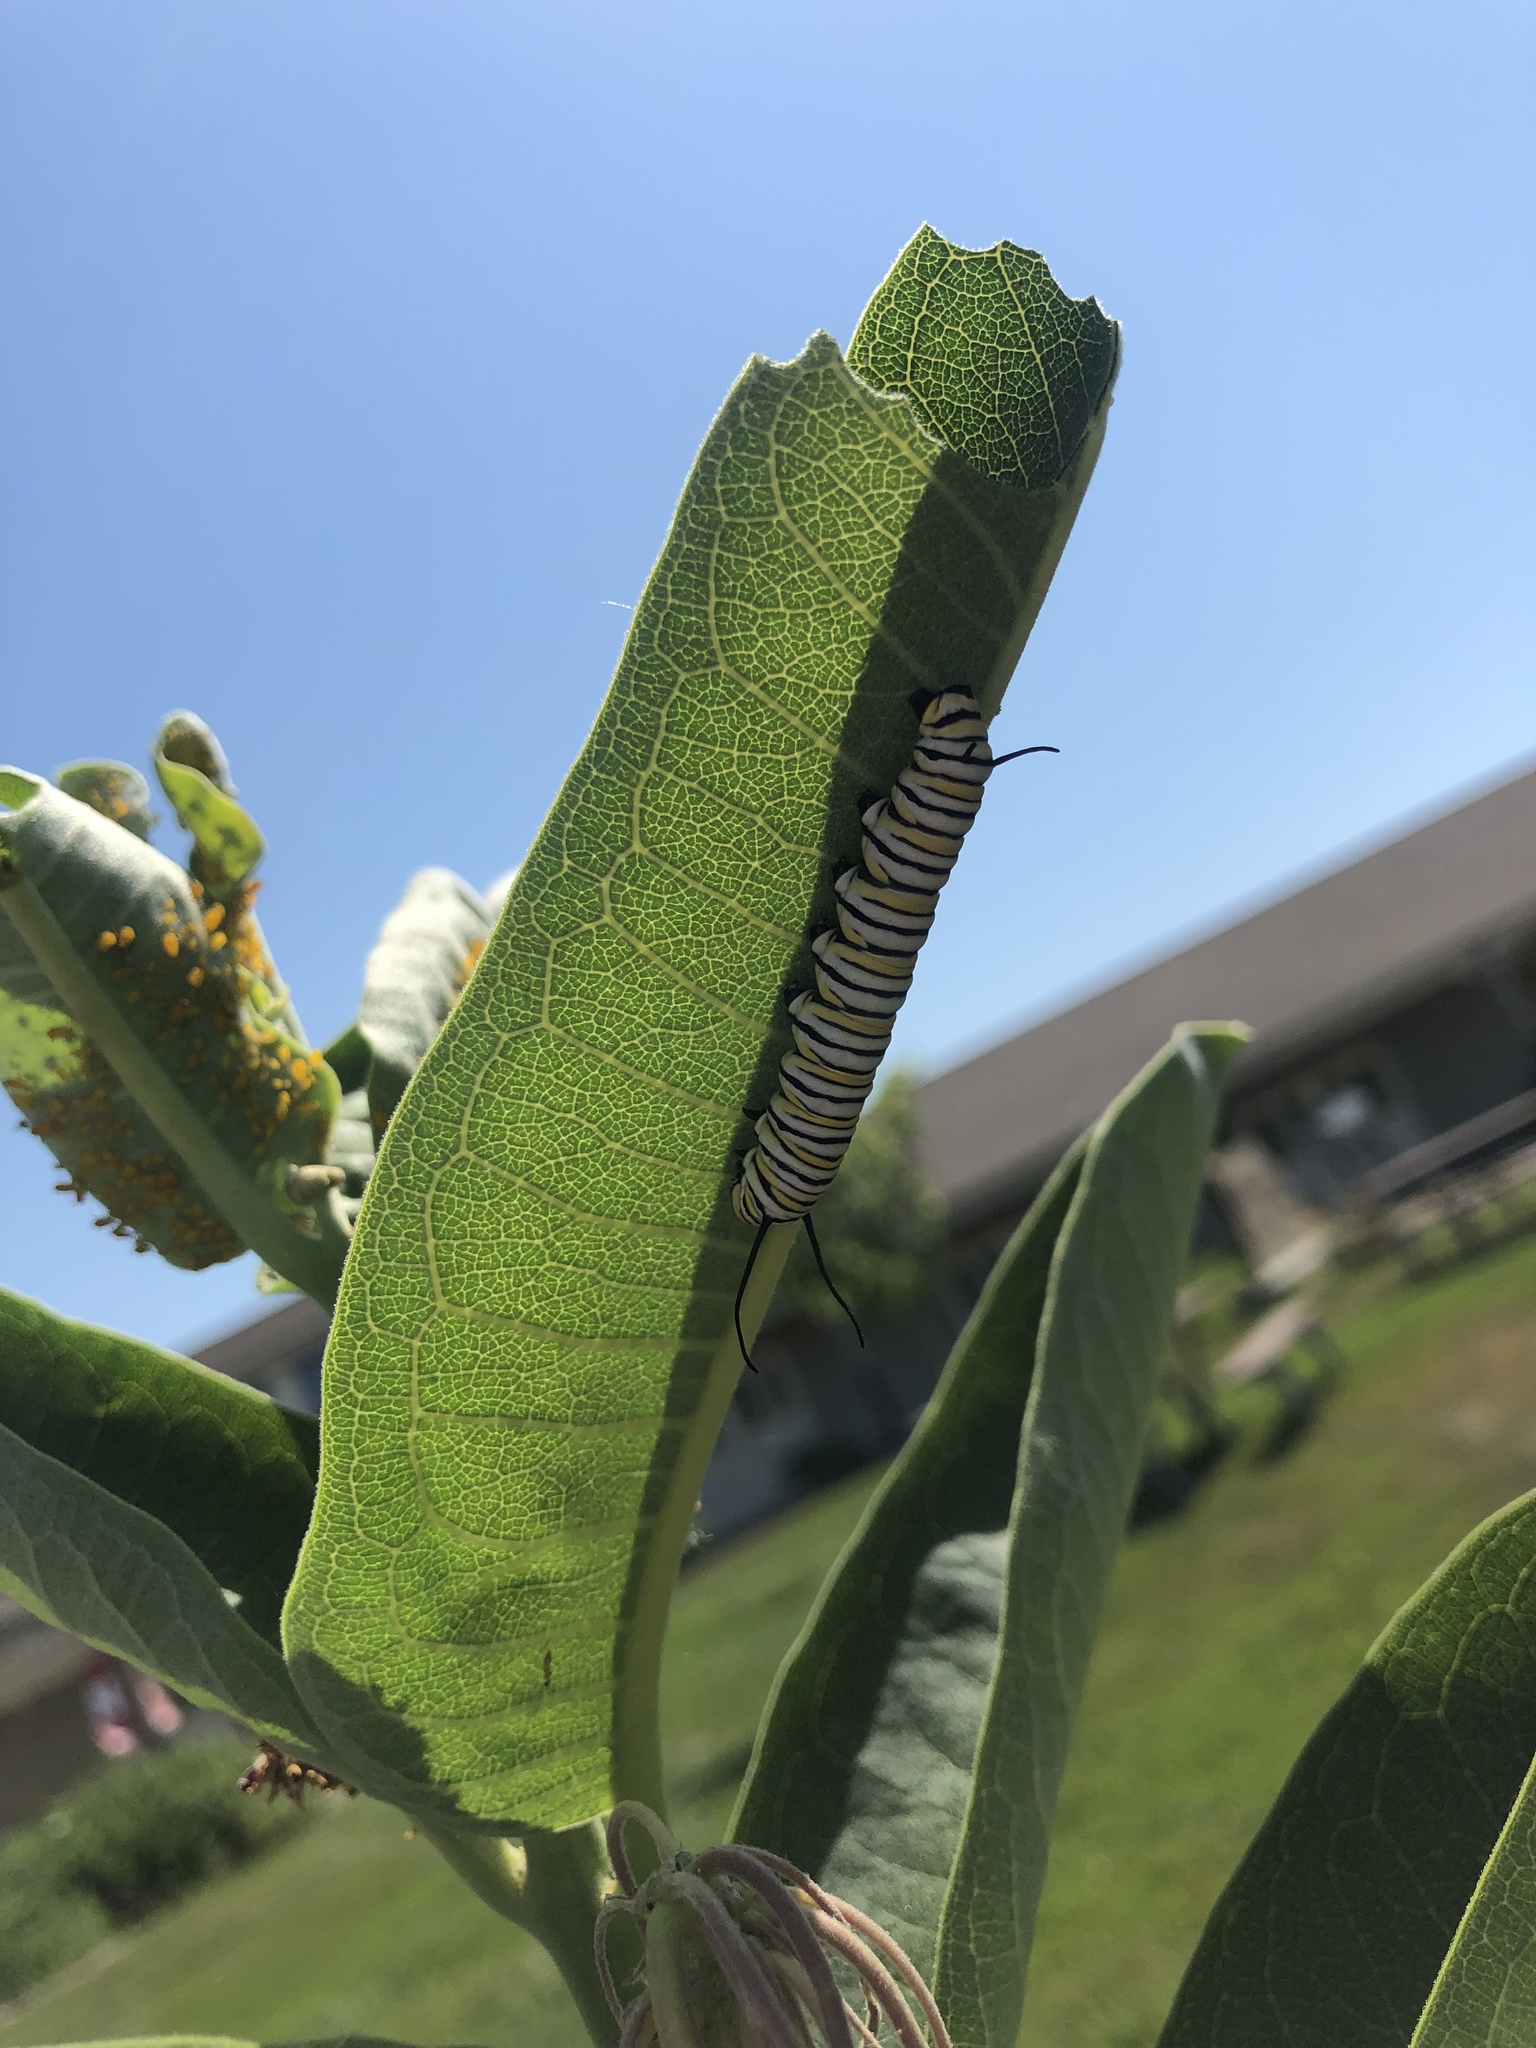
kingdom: Animalia
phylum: Arthropoda
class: Insecta
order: Lepidoptera
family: Nymphalidae
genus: Danaus
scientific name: Danaus plexippus
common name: Monarch
